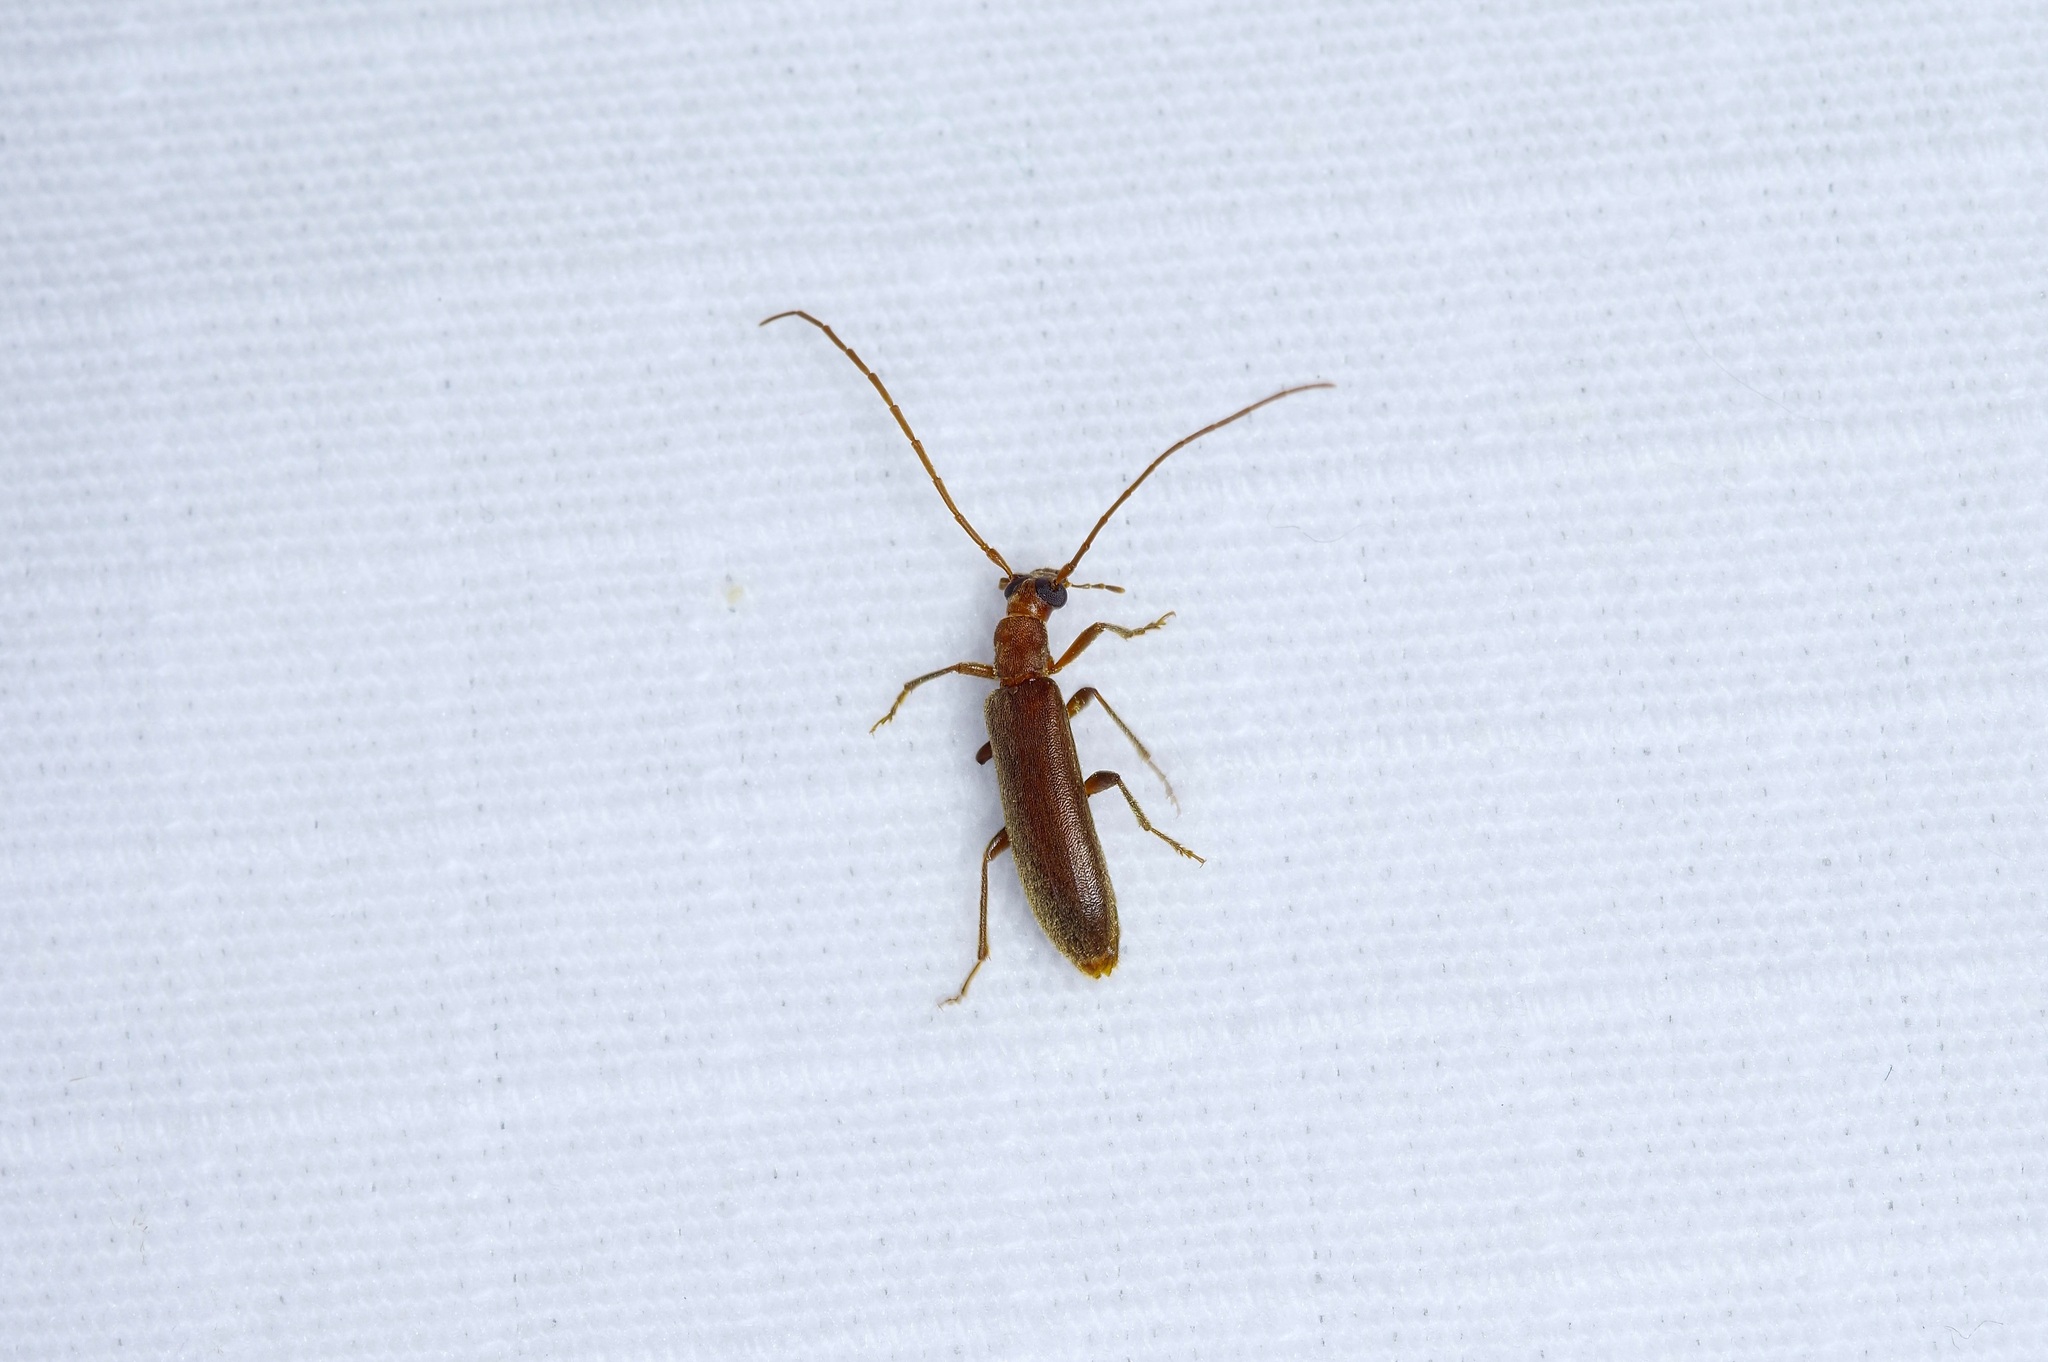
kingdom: Animalia
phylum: Arthropoda
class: Insecta
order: Coleoptera
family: Oedemeridae
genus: Sparedrus
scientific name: Sparedrus aspersus
